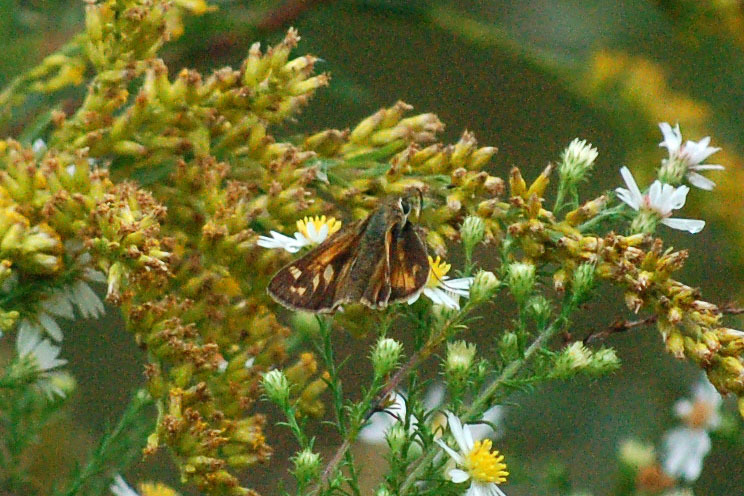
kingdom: Animalia
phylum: Arthropoda
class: Insecta
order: Lepidoptera
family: Hesperiidae
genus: Atalopedes
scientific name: Atalopedes
